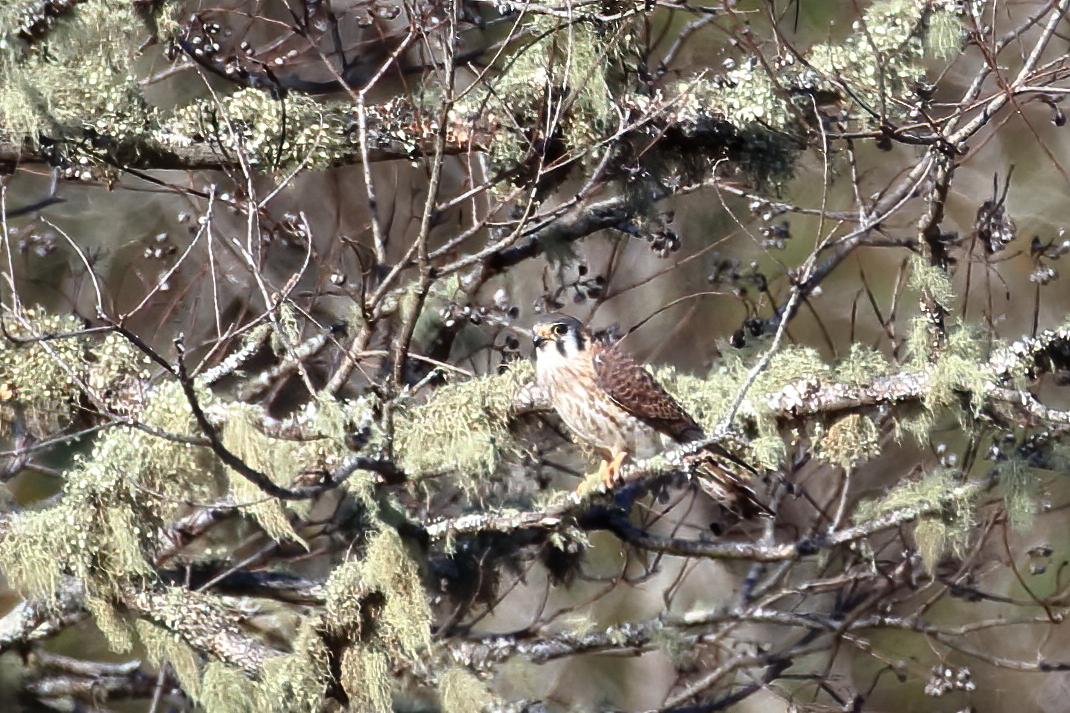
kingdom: Animalia
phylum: Chordata
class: Aves
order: Falconiformes
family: Falconidae
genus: Falco
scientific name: Falco sparverius
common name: American kestrel
